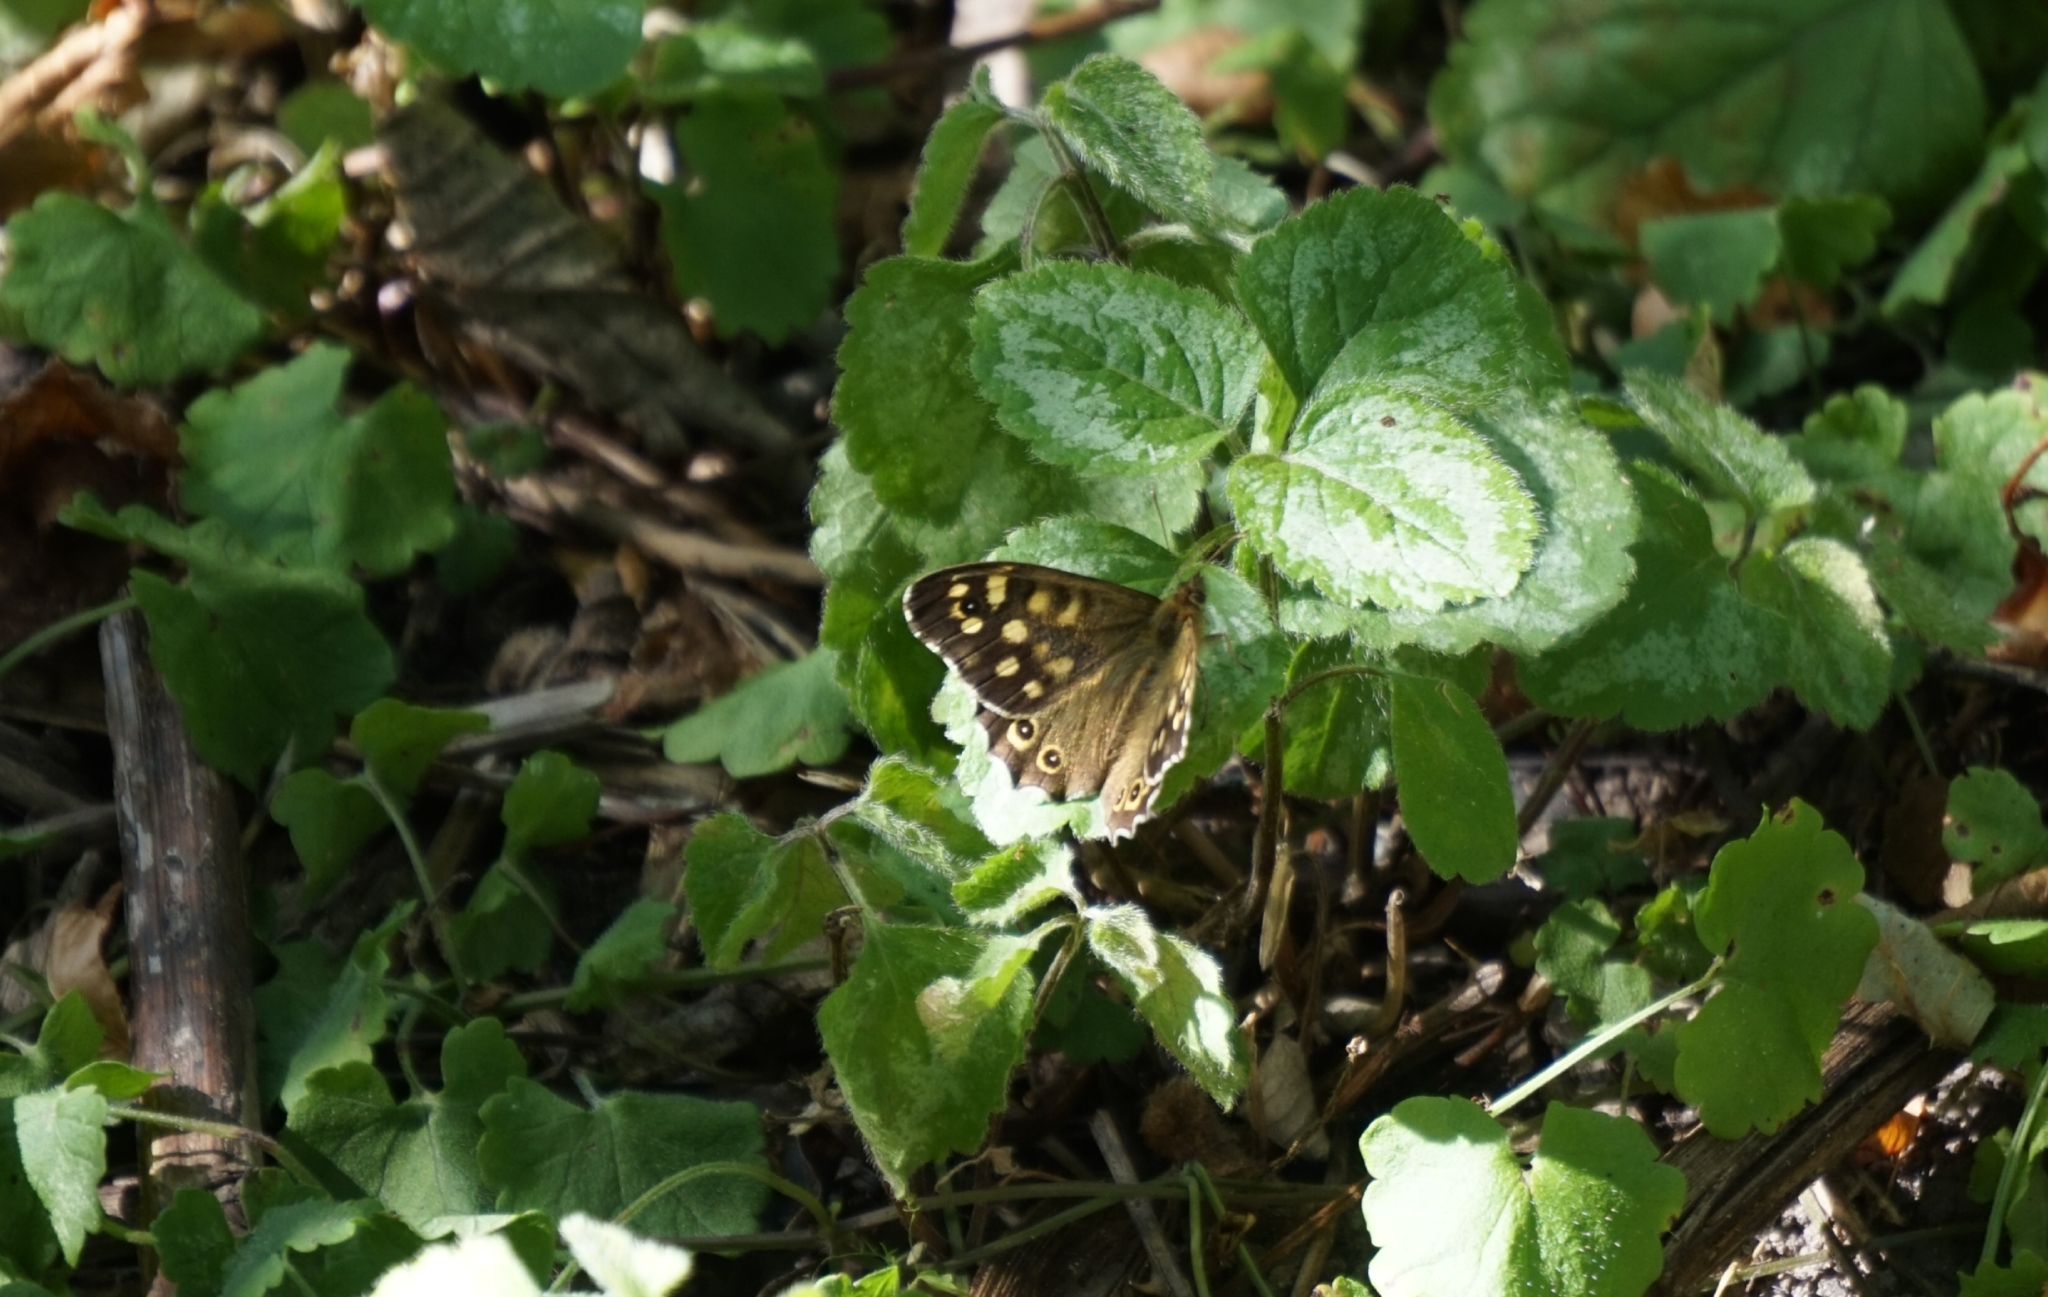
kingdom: Animalia
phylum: Arthropoda
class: Insecta
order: Lepidoptera
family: Nymphalidae
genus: Pararge
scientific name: Pararge aegeria
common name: Speckled wood
